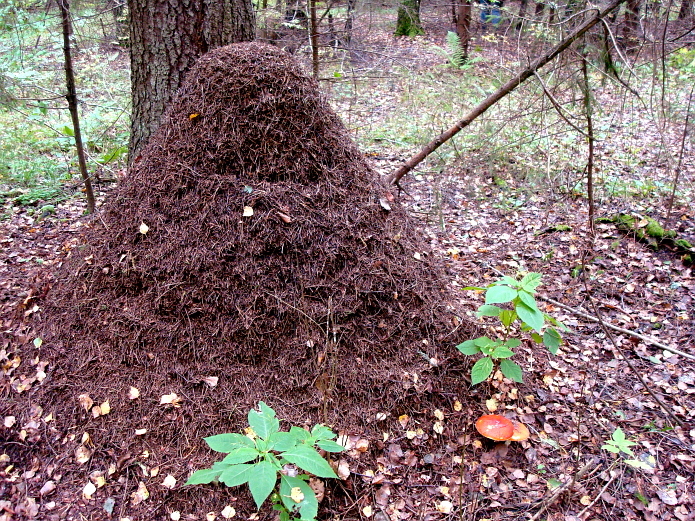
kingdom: Animalia
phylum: Arthropoda
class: Insecta
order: Hymenoptera
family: Formicidae
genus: Formica
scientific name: Formica
